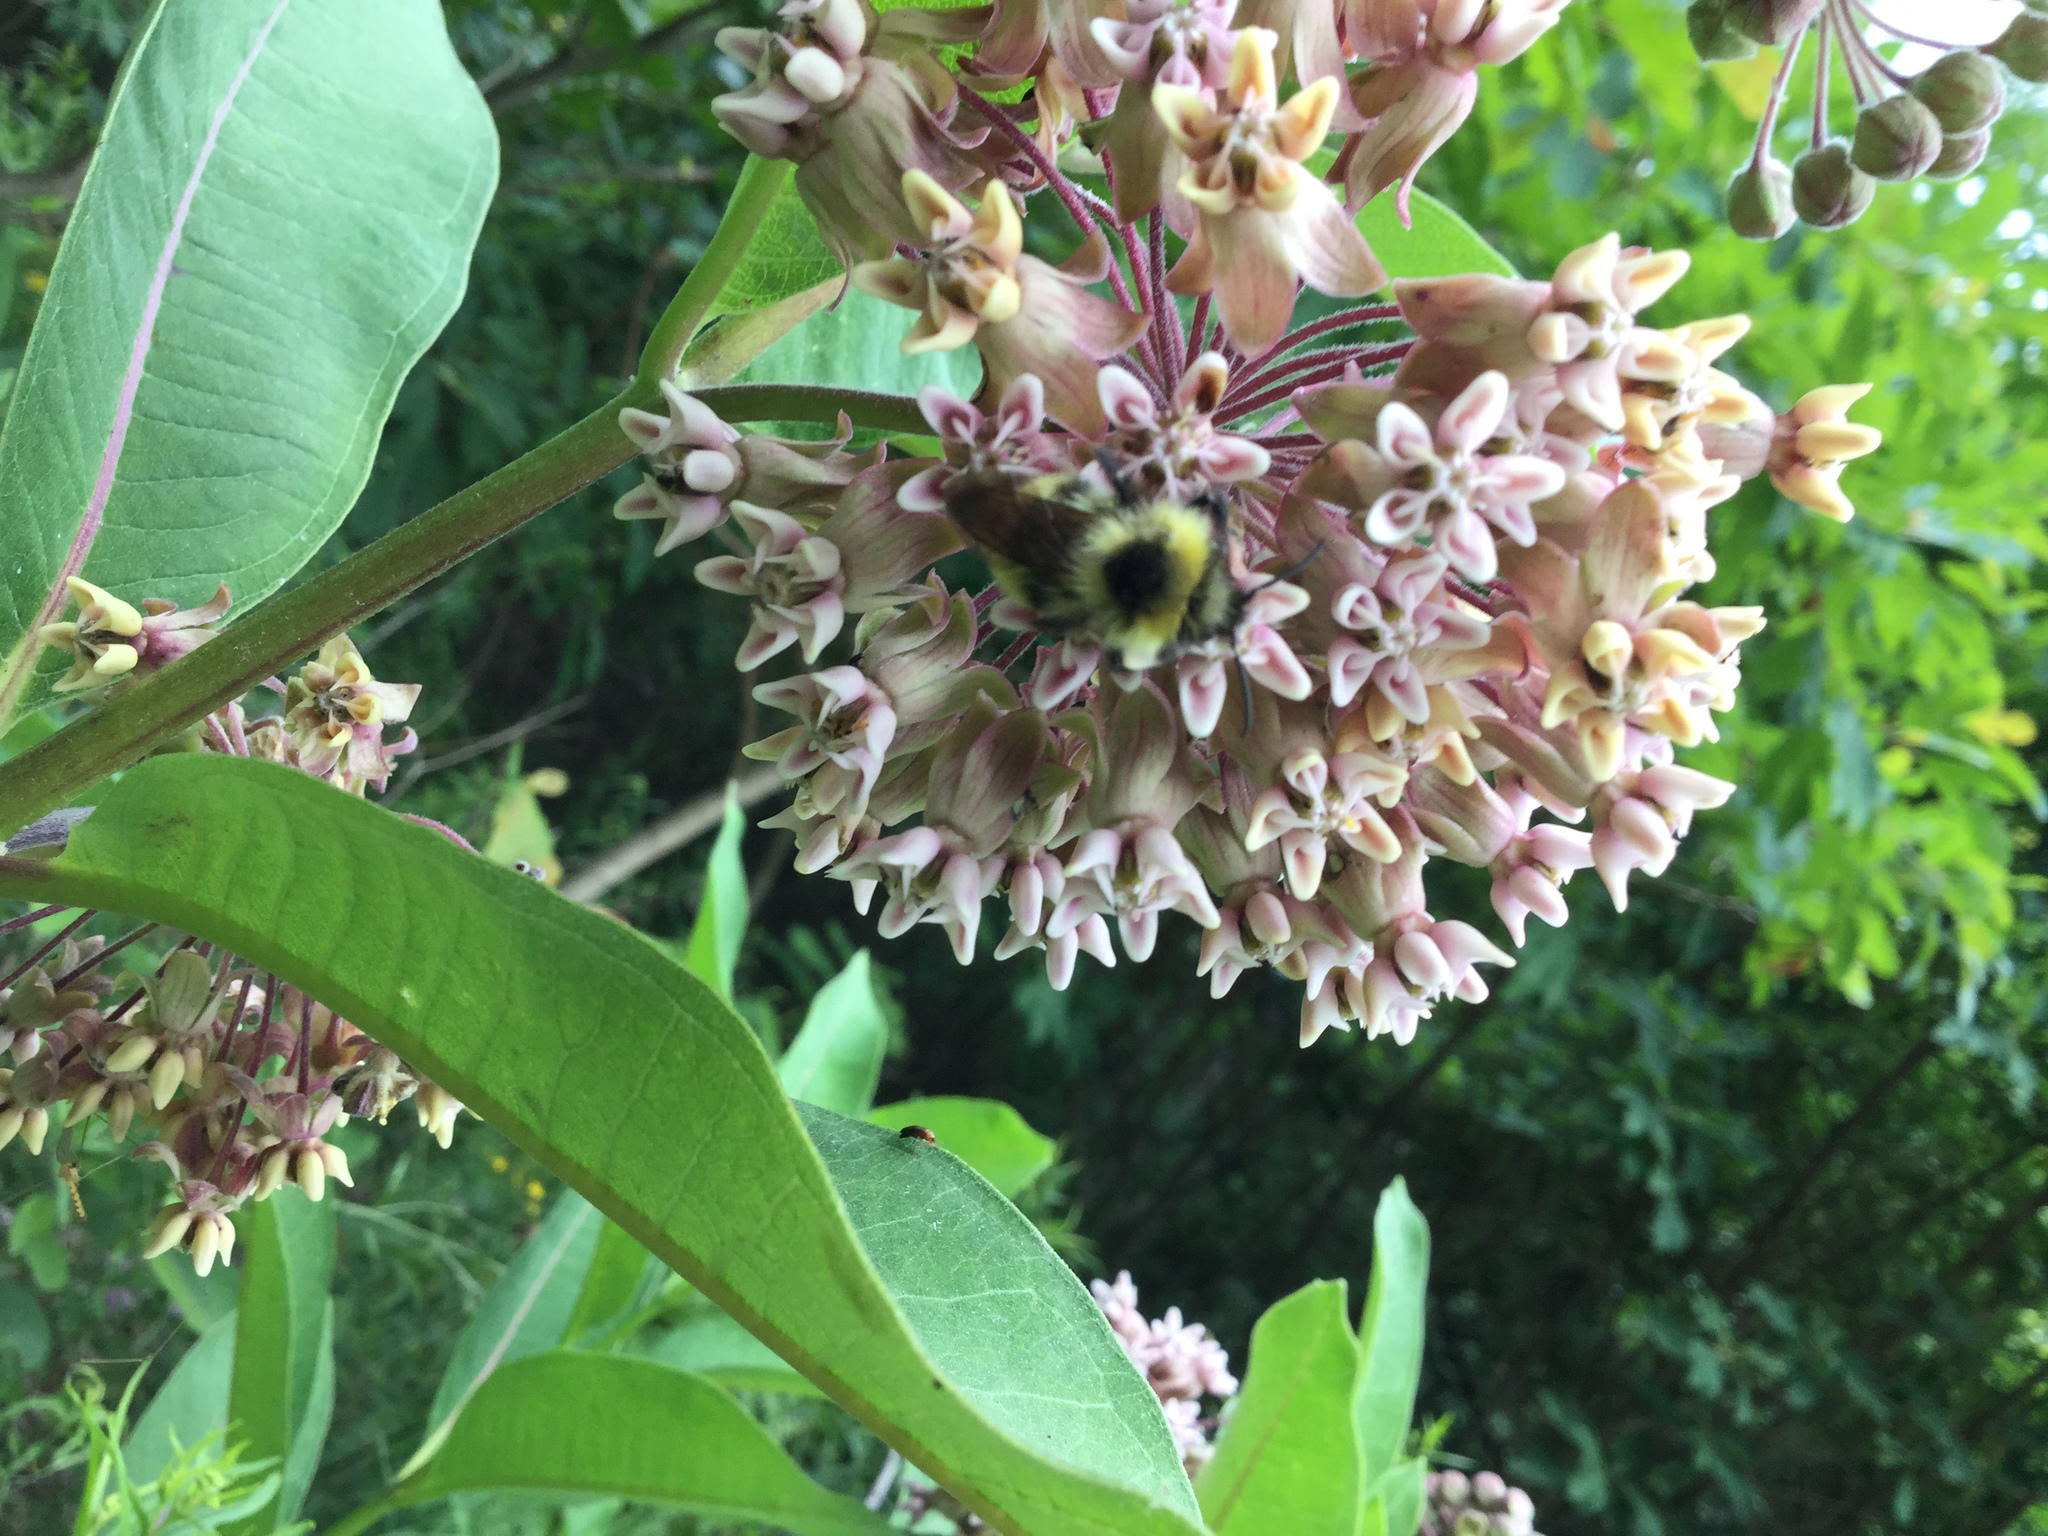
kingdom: Plantae
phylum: Tracheophyta
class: Magnoliopsida
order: Gentianales
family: Apocynaceae
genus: Asclepias
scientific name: Asclepias syriaca
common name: Common milkweed
